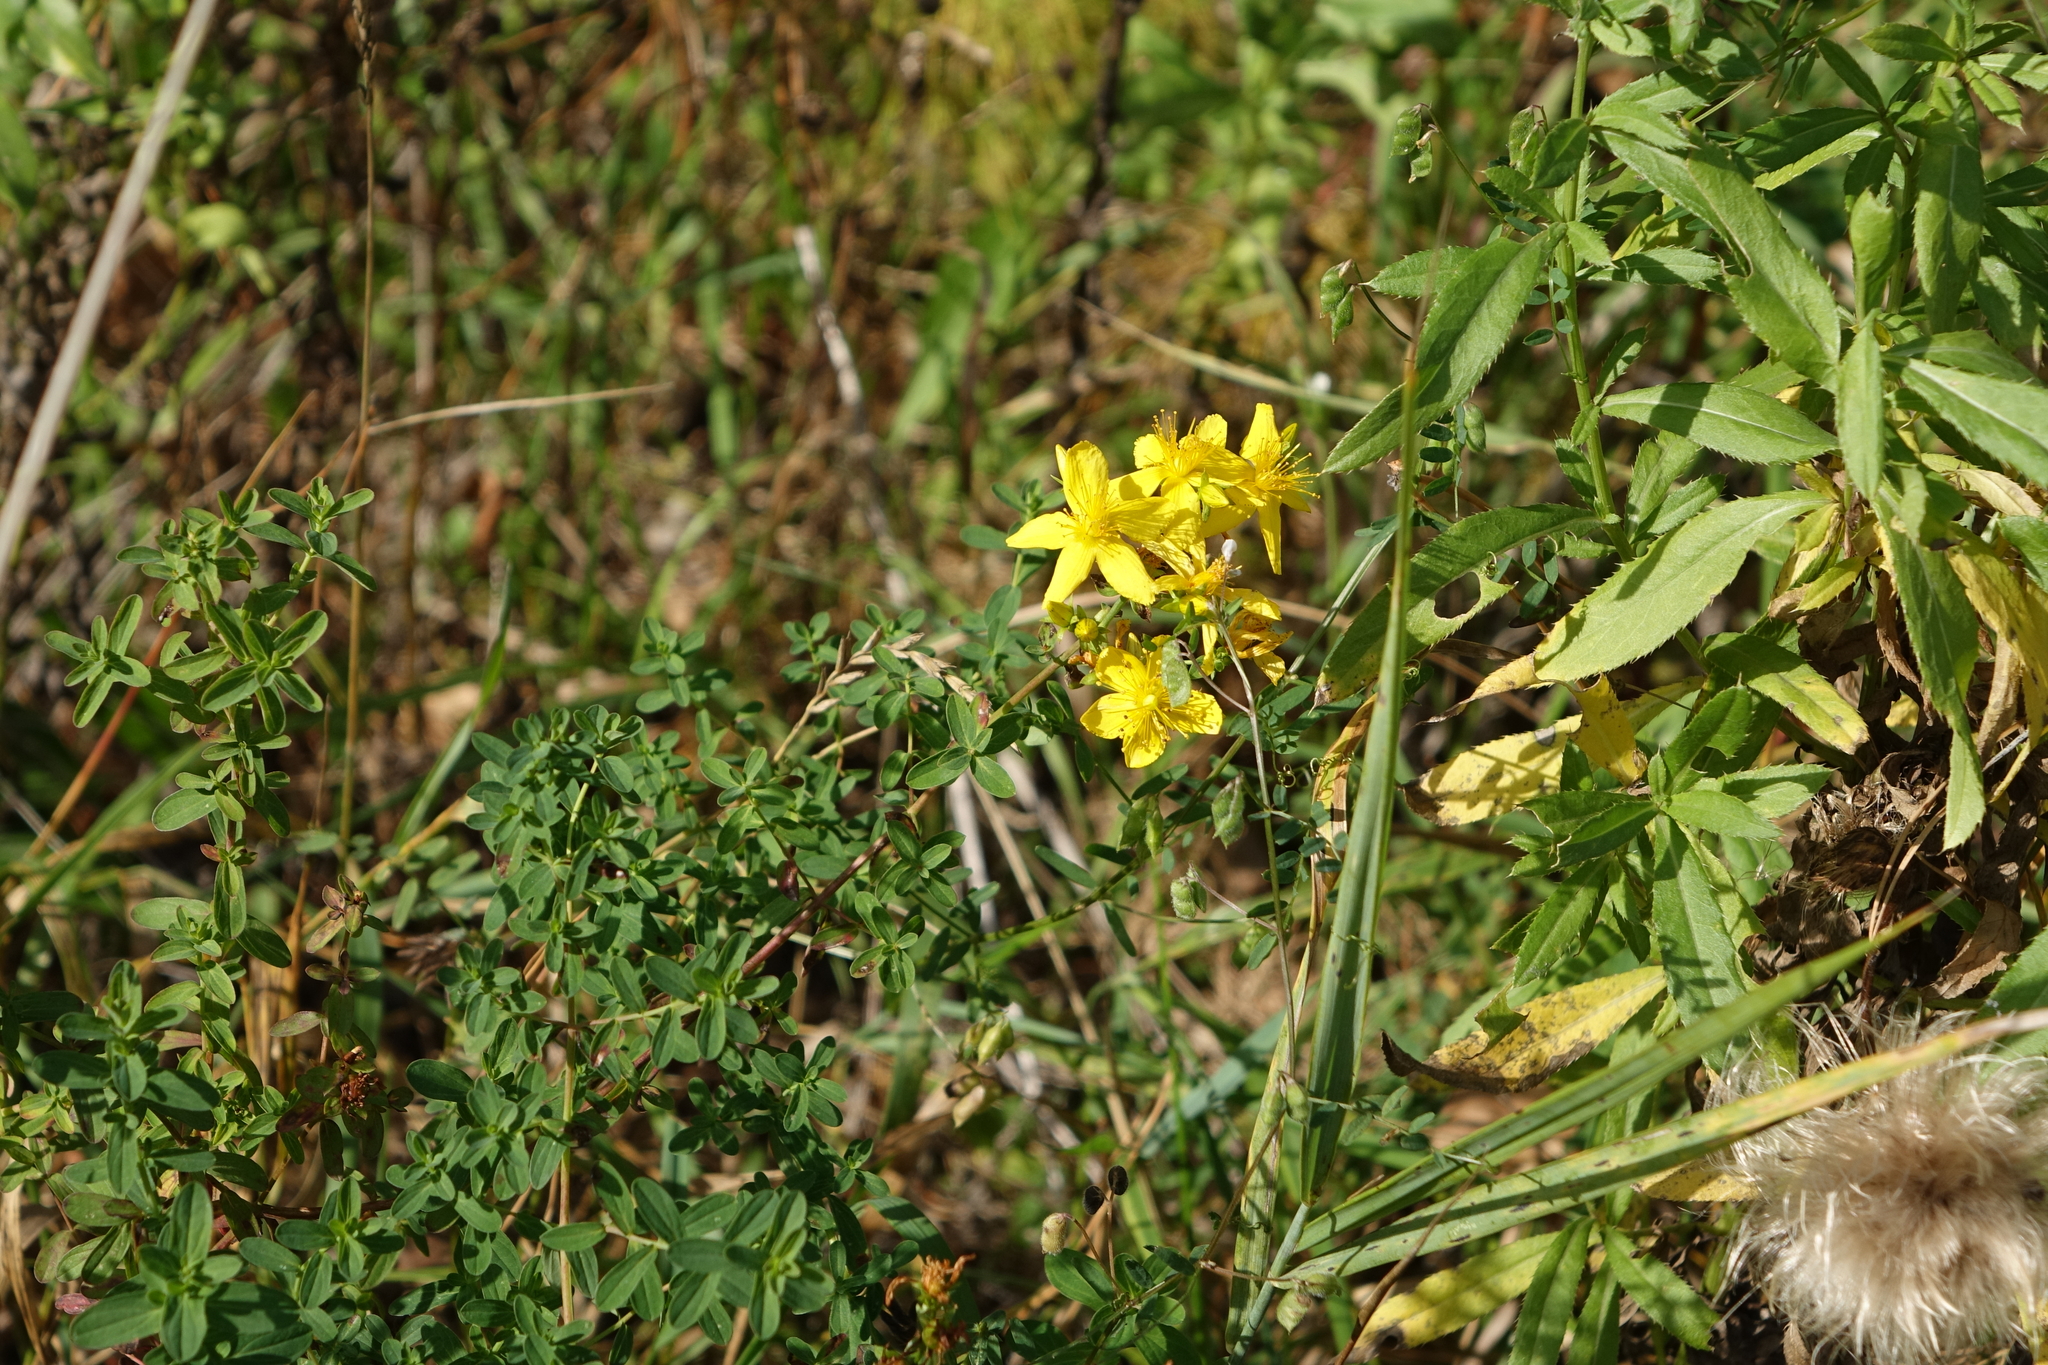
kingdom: Plantae
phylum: Tracheophyta
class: Magnoliopsida
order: Malpighiales
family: Hypericaceae
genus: Hypericum
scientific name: Hypericum perforatum
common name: Common st. johnswort
